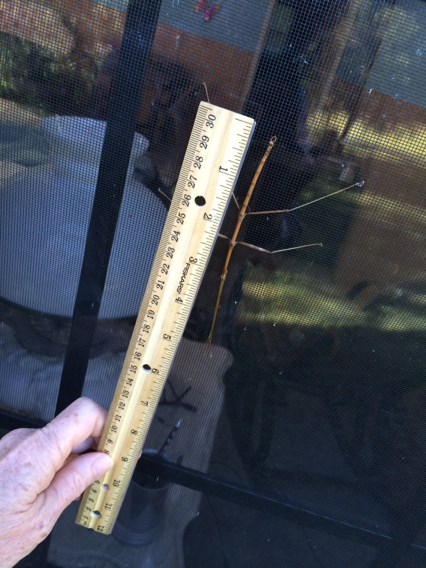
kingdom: Animalia
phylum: Arthropoda
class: Insecta
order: Phasmida
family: Diapheromeridae
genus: Diapheromera
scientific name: Diapheromera femorata
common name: Common american walkingstick
